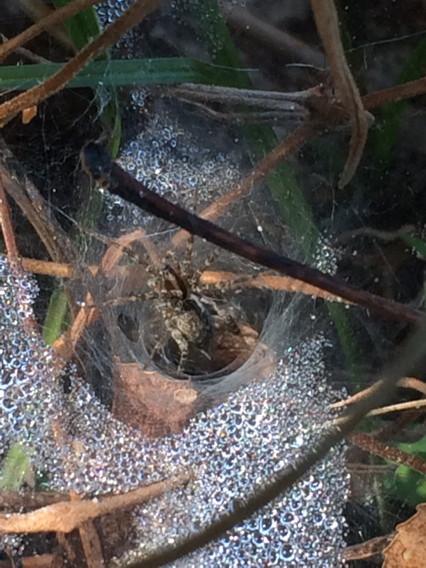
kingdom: Animalia
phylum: Arthropoda
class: Arachnida
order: Araneae
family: Agelenidae
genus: Agelenopsis
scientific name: Agelenopsis
